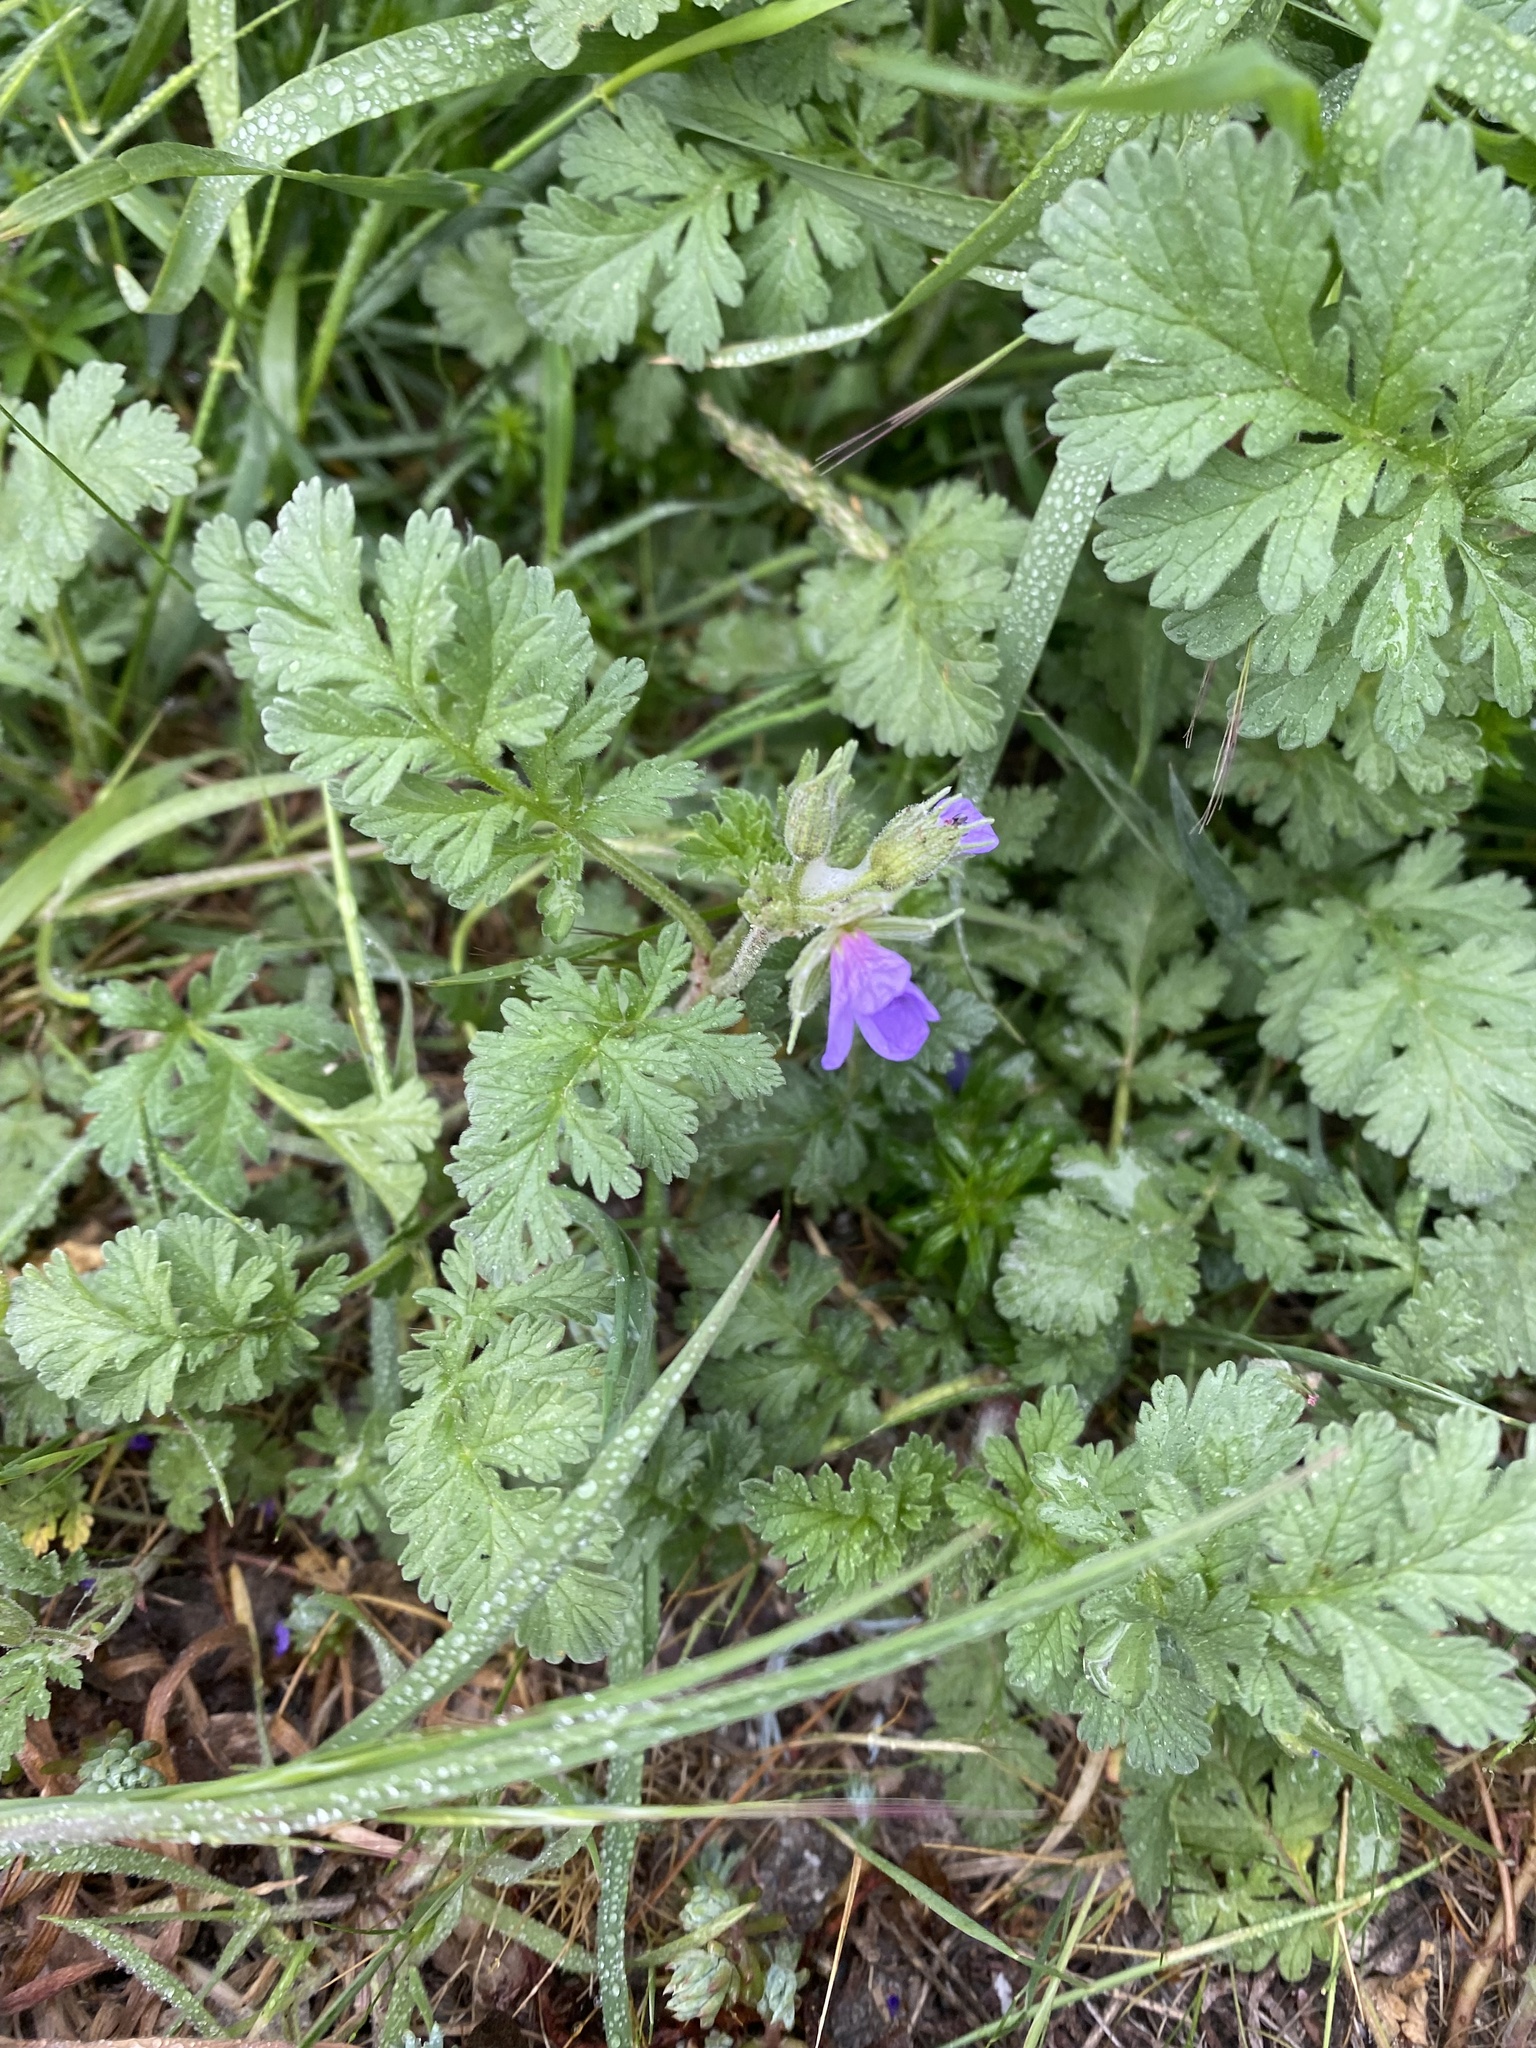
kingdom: Plantae
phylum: Tracheophyta
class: Magnoliopsida
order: Geraniales
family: Geraniaceae
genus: Erodium
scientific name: Erodium ciconium
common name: Common stork's bill
